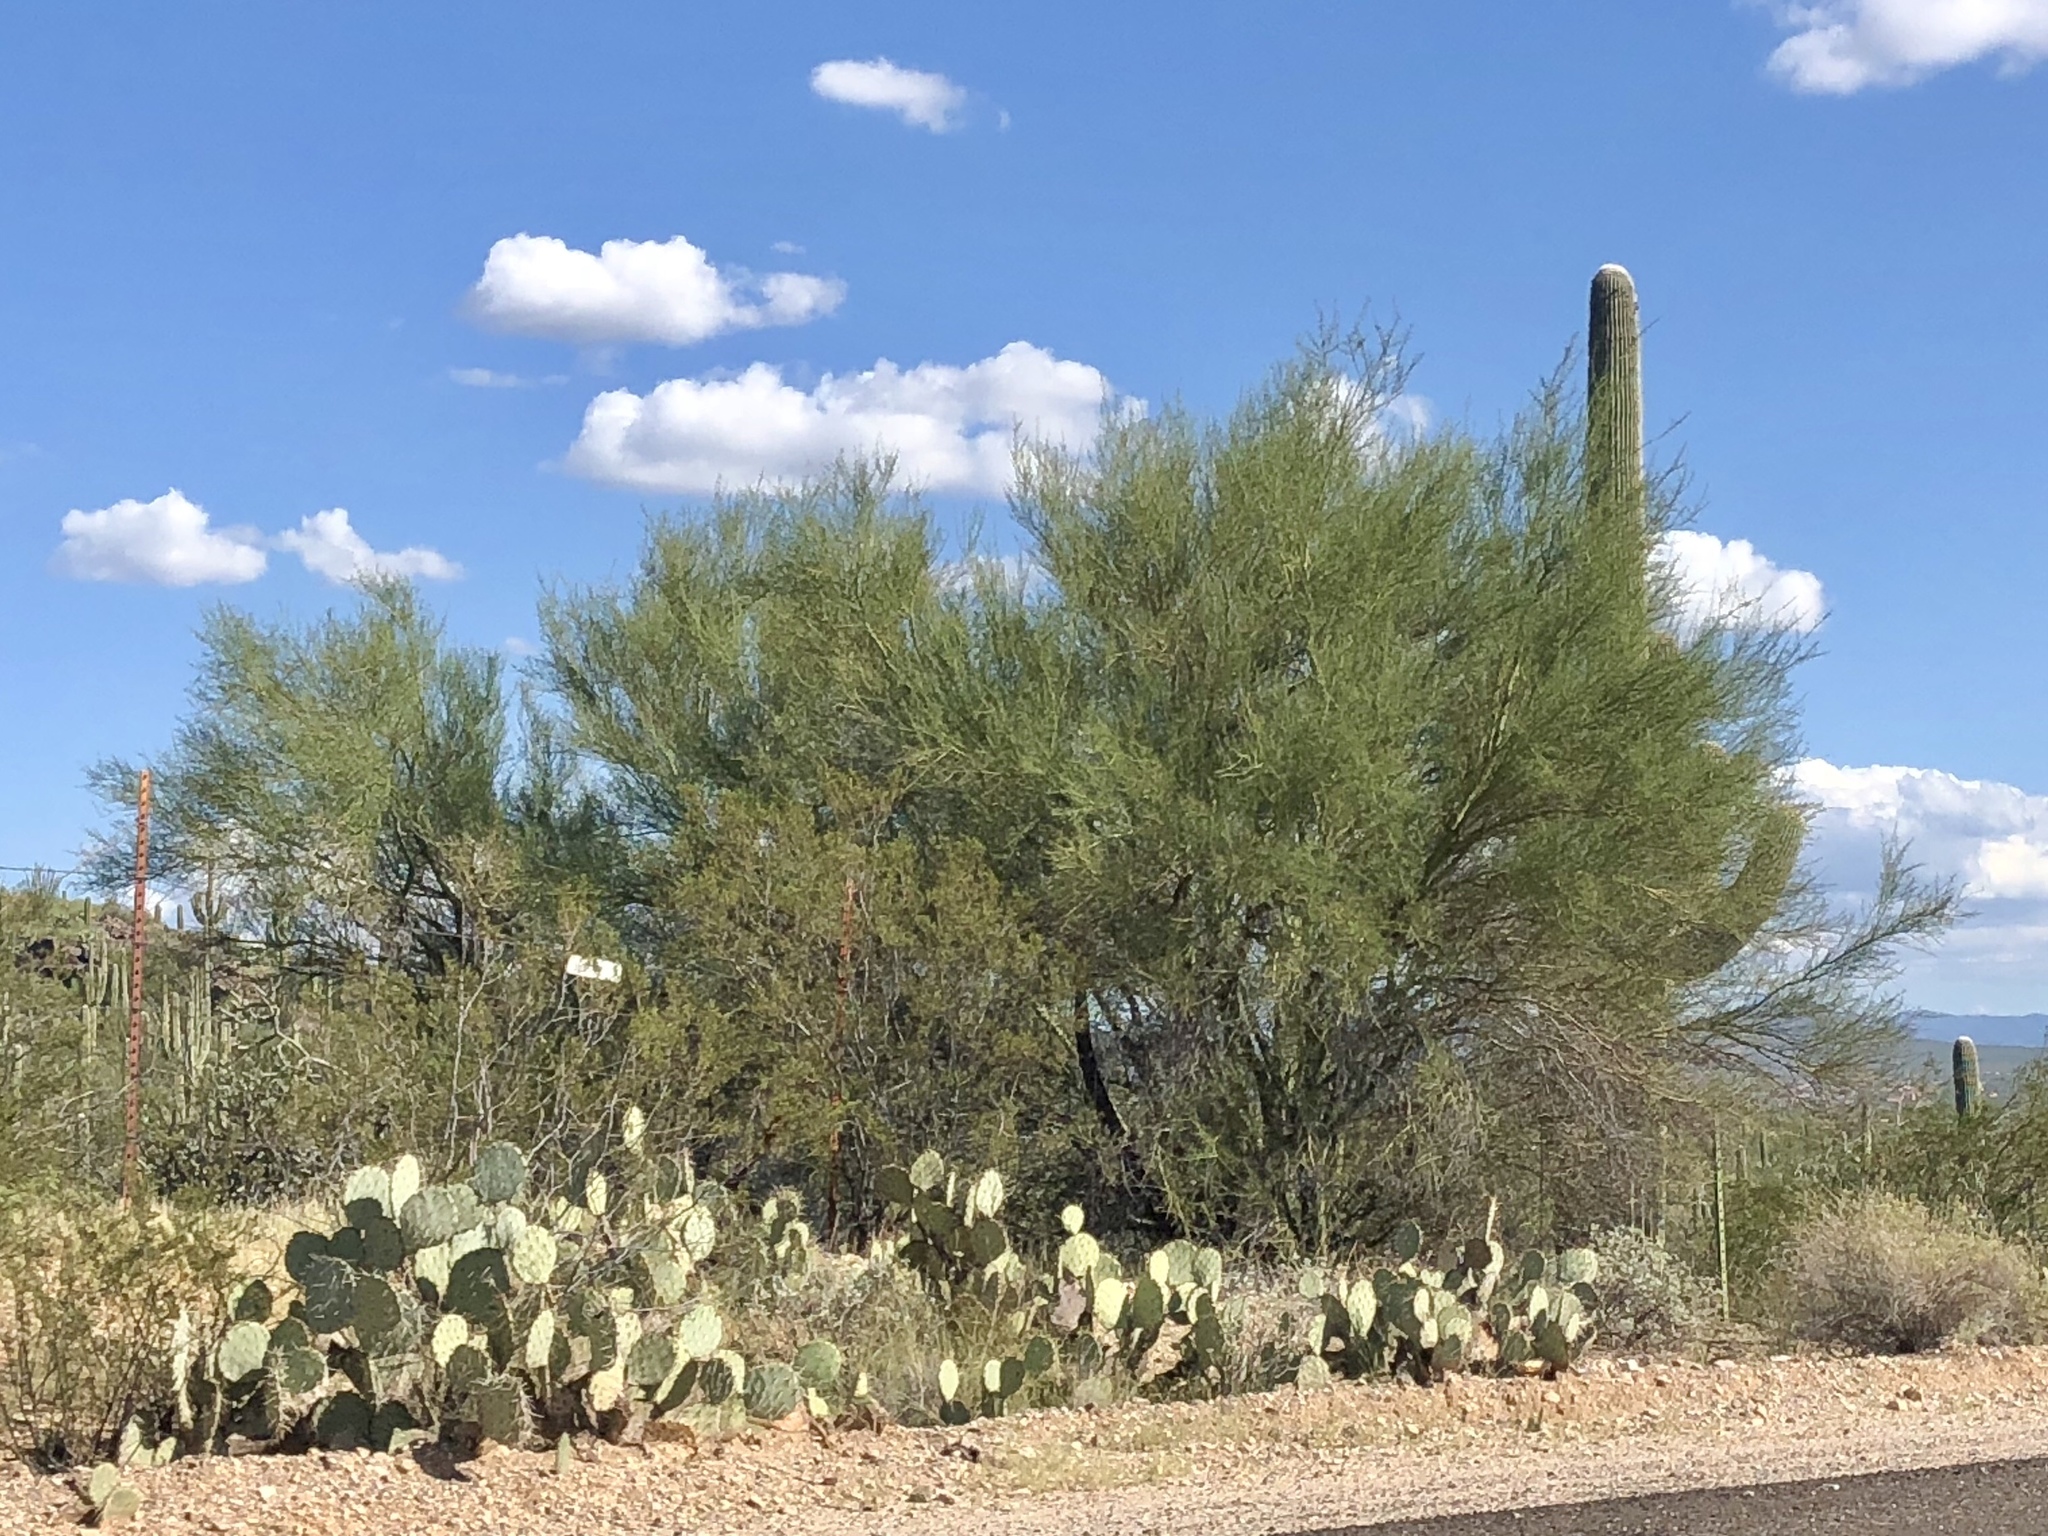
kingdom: Plantae
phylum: Tracheophyta
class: Magnoliopsida
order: Fabales
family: Fabaceae
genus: Parkinsonia
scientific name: Parkinsonia microphylla
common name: Yellow paloverde
